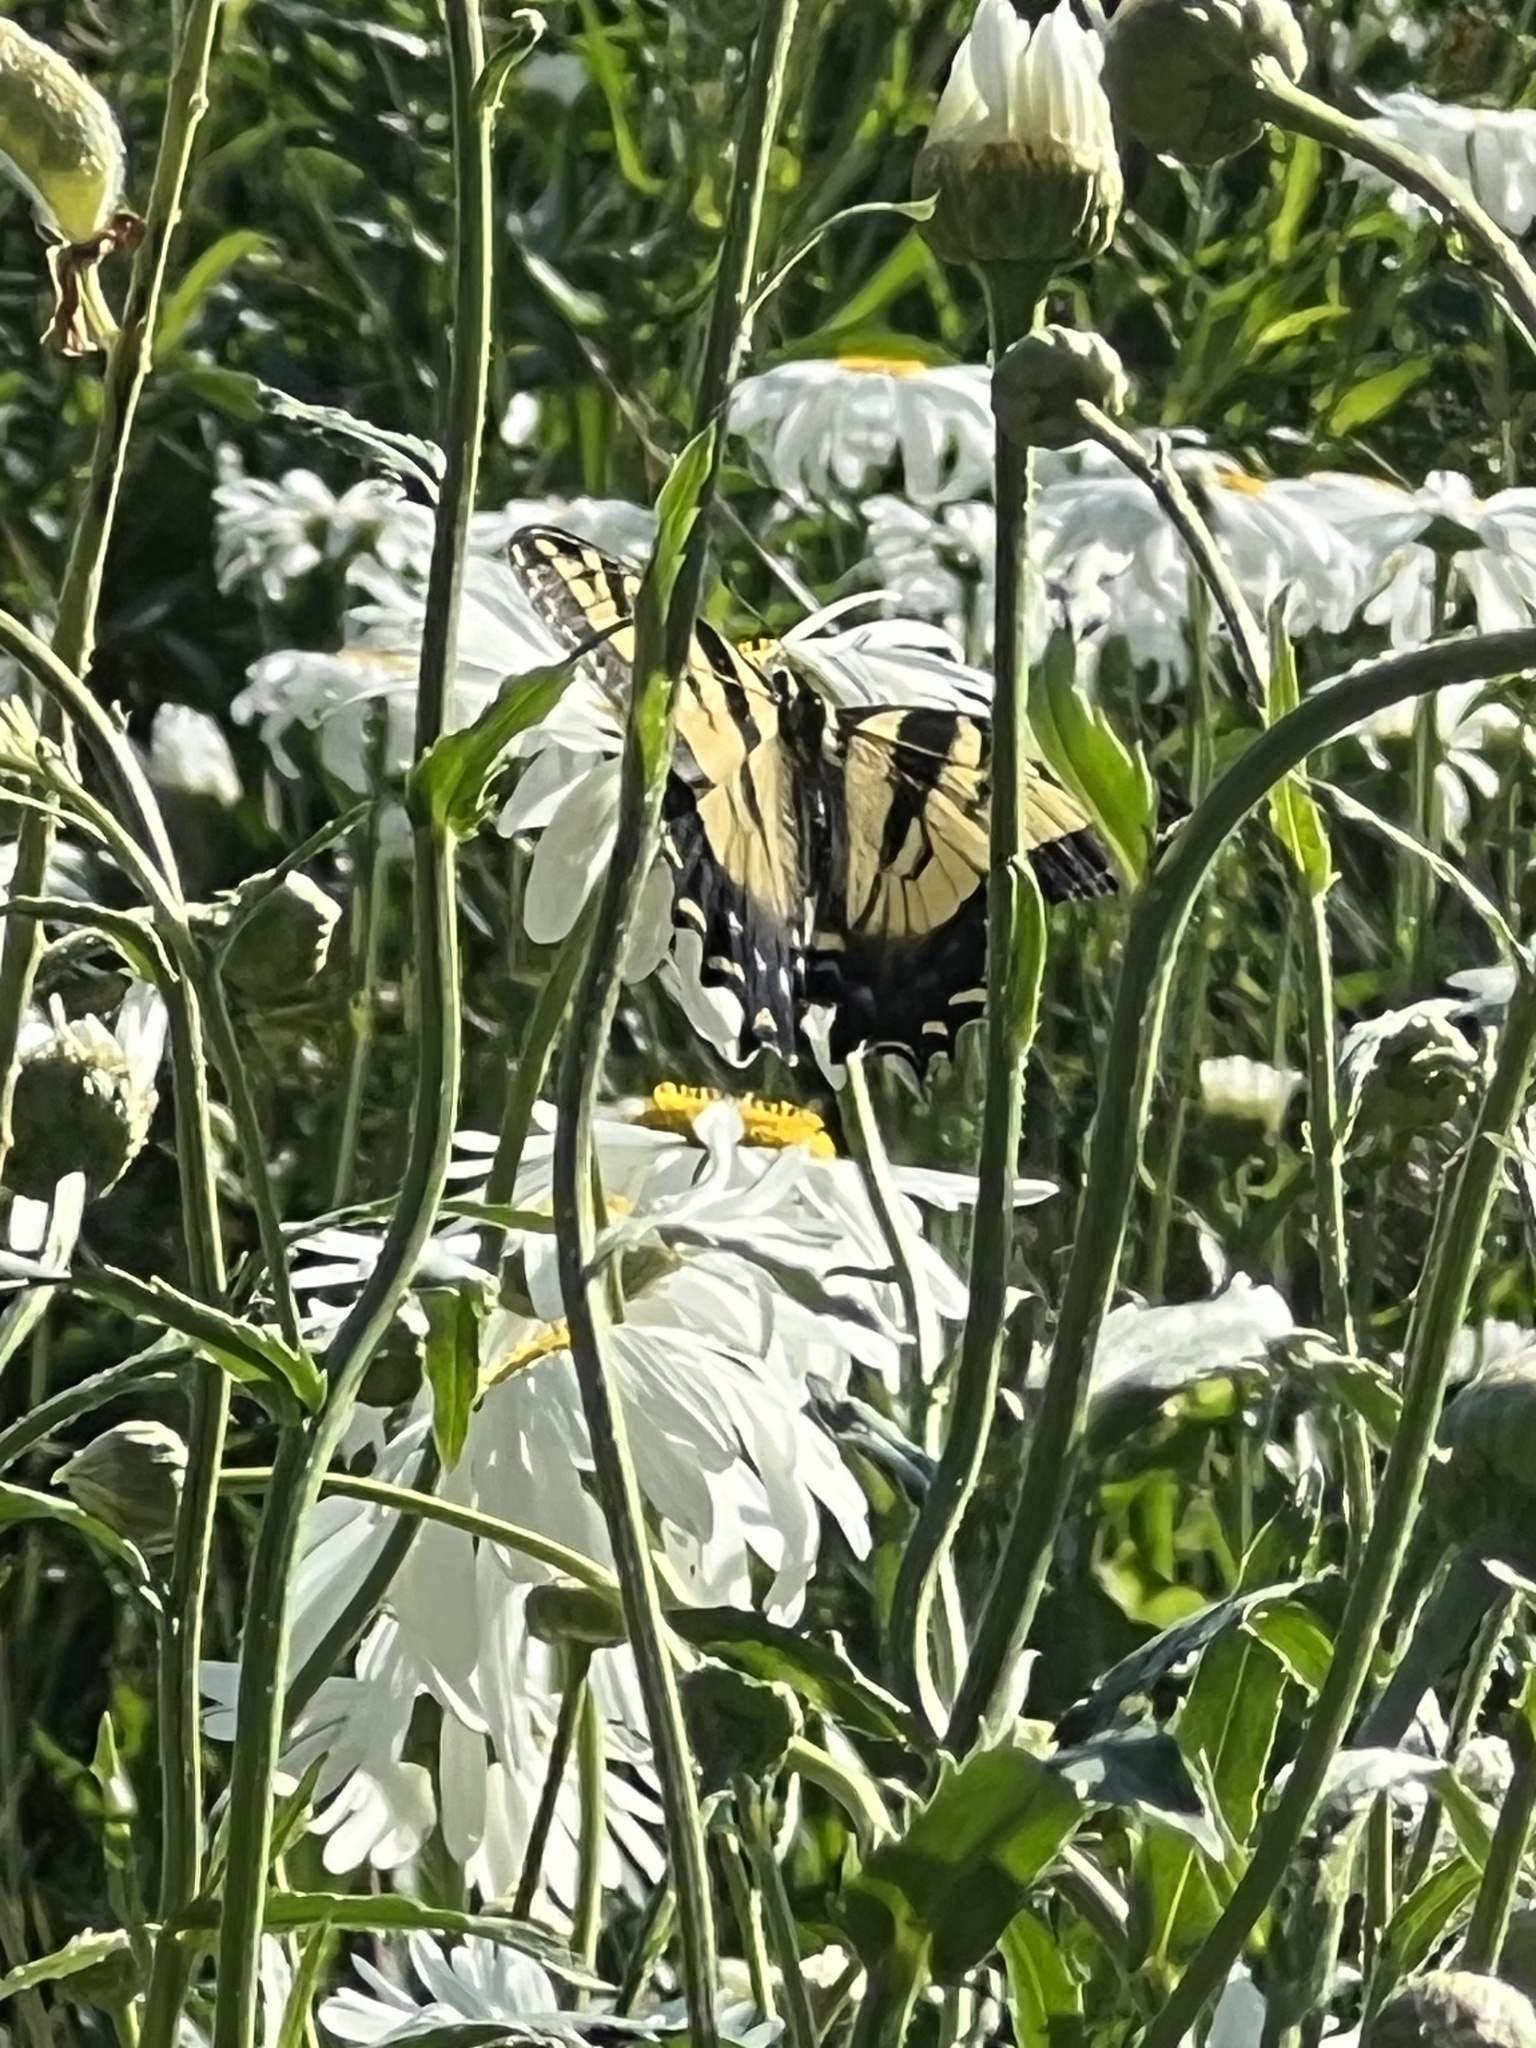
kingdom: Animalia
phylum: Arthropoda
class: Insecta
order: Lepidoptera
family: Papilionidae
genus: Papilio
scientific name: Papilio rutulus
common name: Western tiger swallowtail
